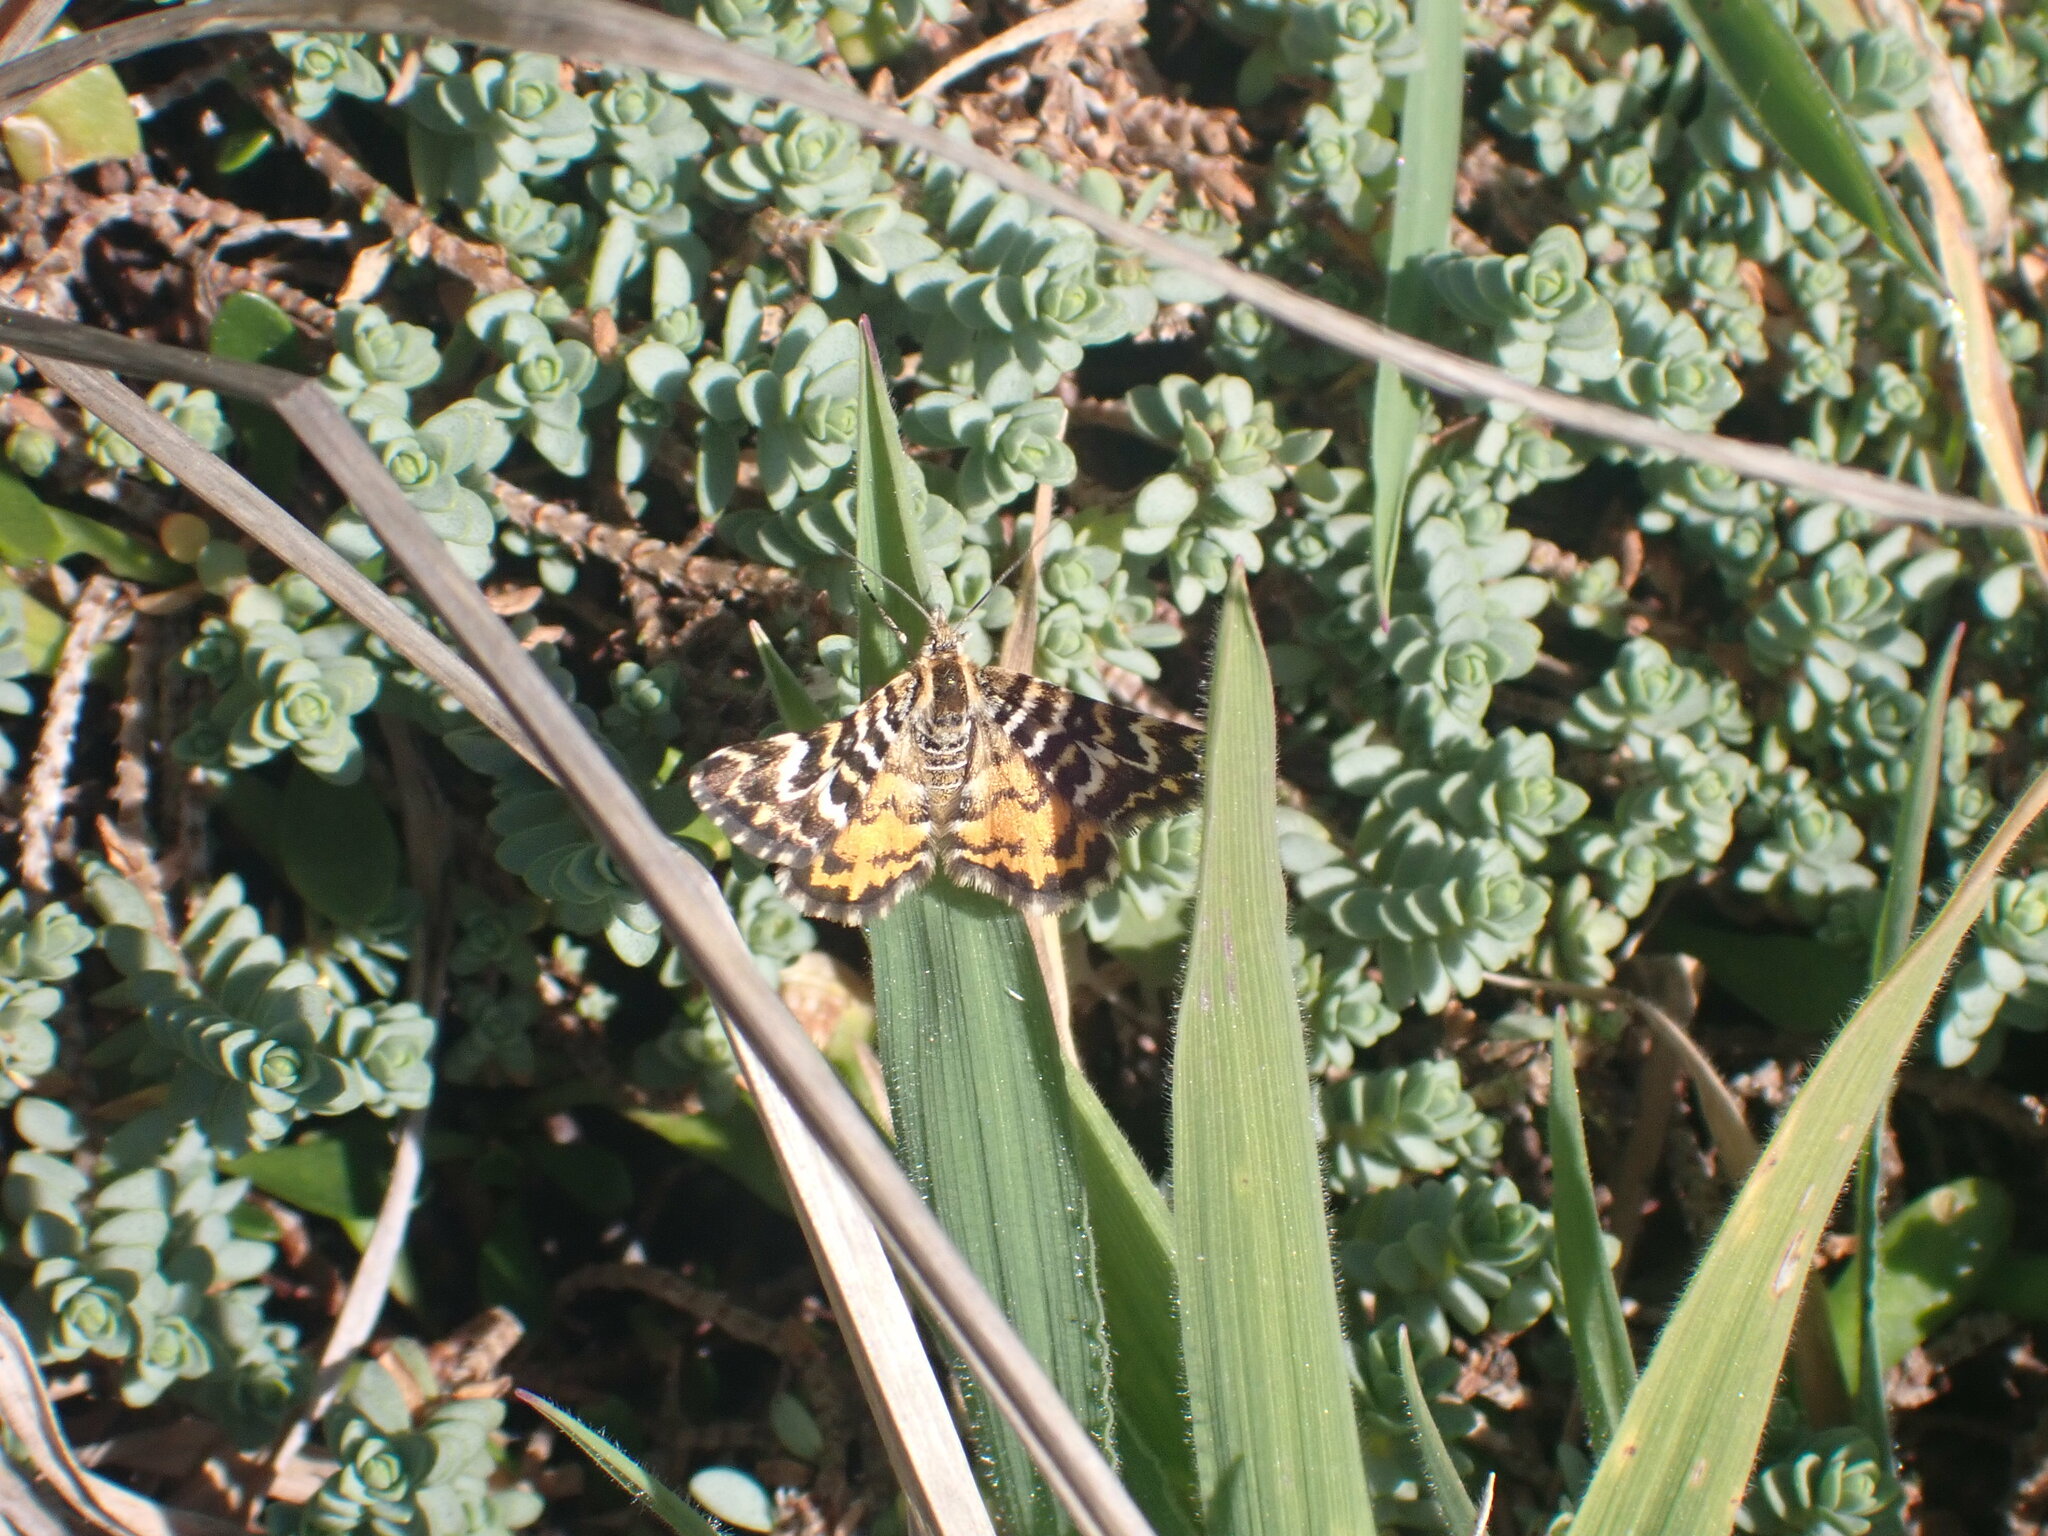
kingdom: Animalia
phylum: Arthropoda
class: Insecta
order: Lepidoptera
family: Geometridae
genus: Notoreas
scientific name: Notoreas perornata
